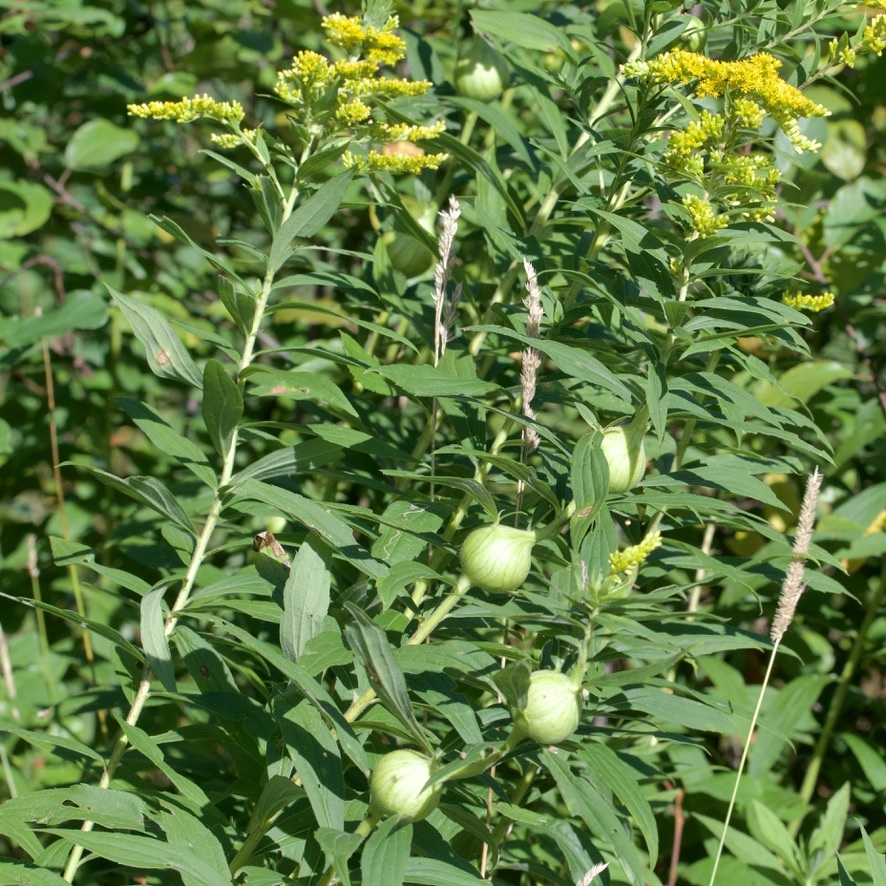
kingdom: Animalia
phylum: Arthropoda
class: Insecta
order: Diptera
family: Tephritidae
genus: Eurosta
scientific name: Eurosta solidaginis
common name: Goldenrod gall fly
